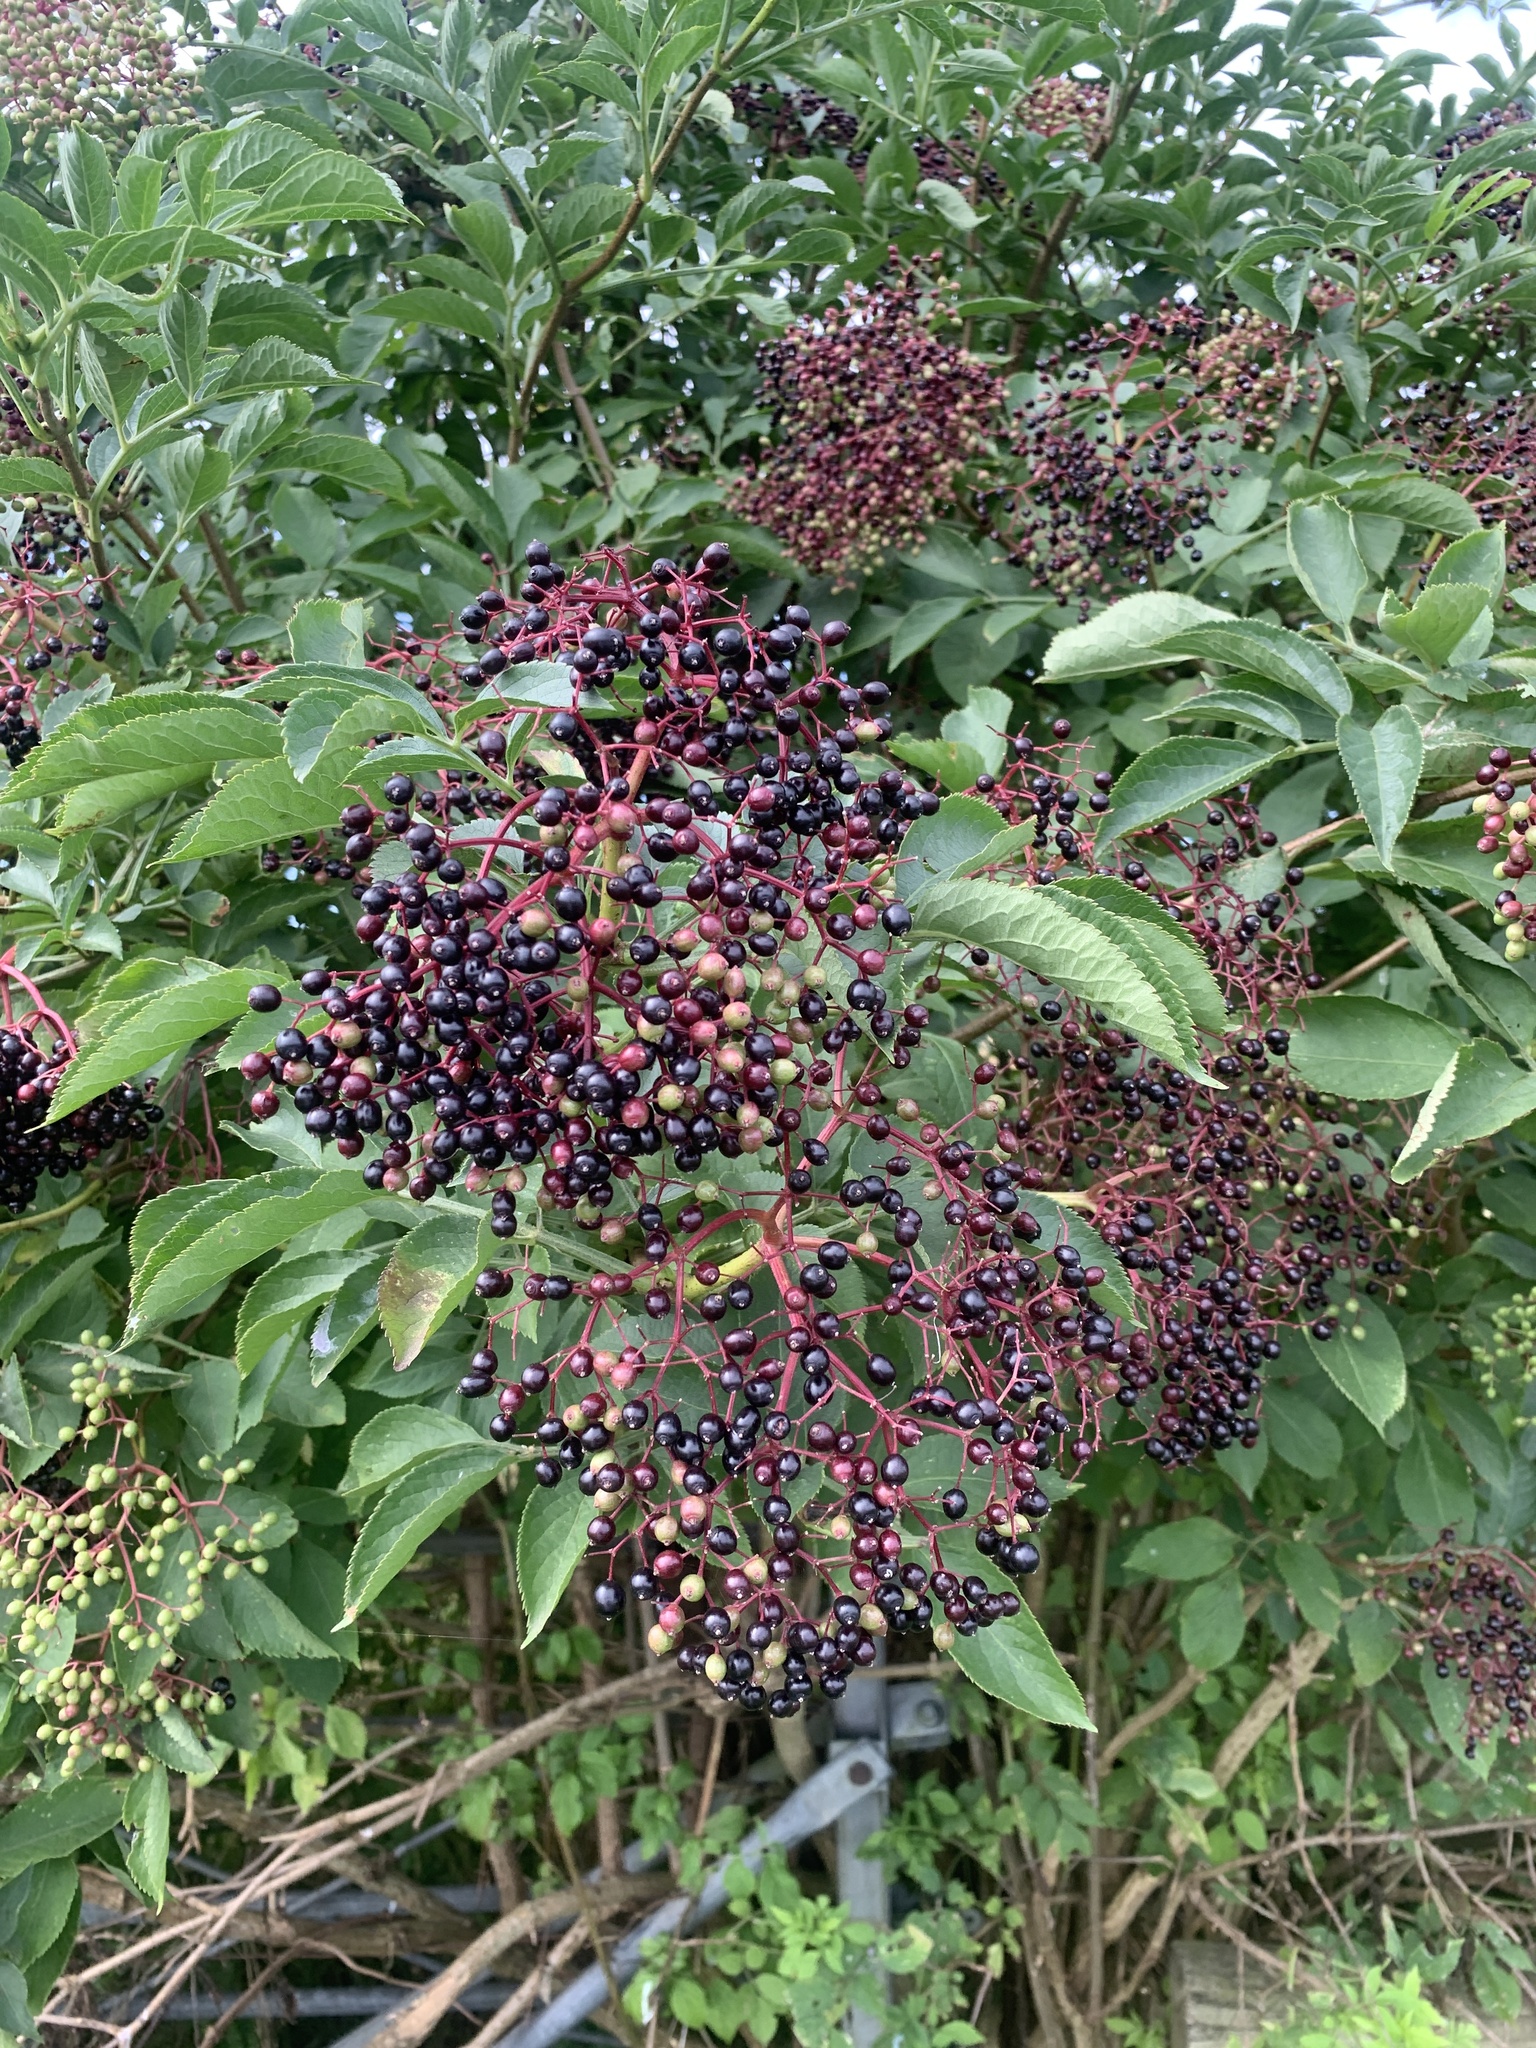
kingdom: Plantae
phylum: Tracheophyta
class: Magnoliopsida
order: Dipsacales
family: Viburnaceae
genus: Sambucus
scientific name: Sambucus nigra
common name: Elder
